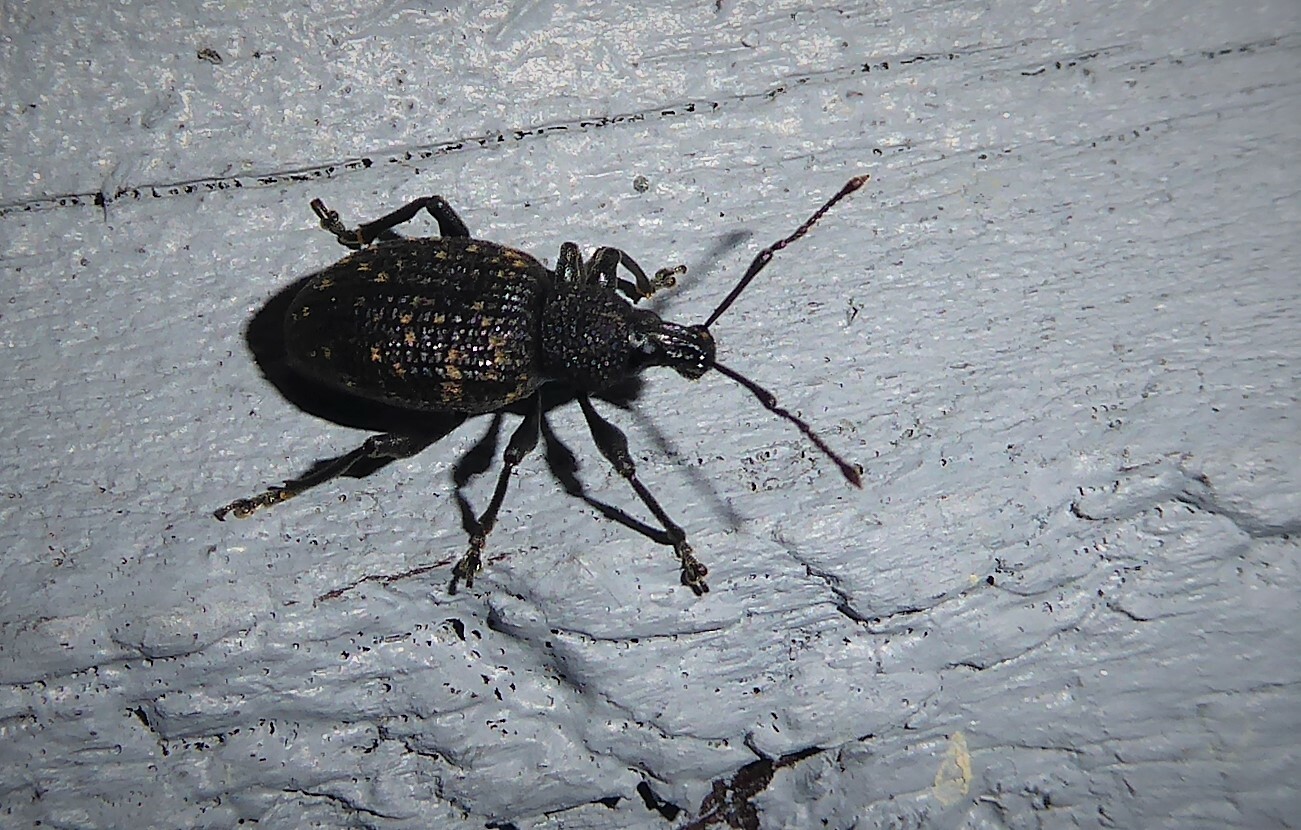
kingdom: Animalia
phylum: Arthropoda
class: Insecta
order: Coleoptera
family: Curculionidae
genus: Otiorhynchus
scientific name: Otiorhynchus sulcatus
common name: Black vine weevil
